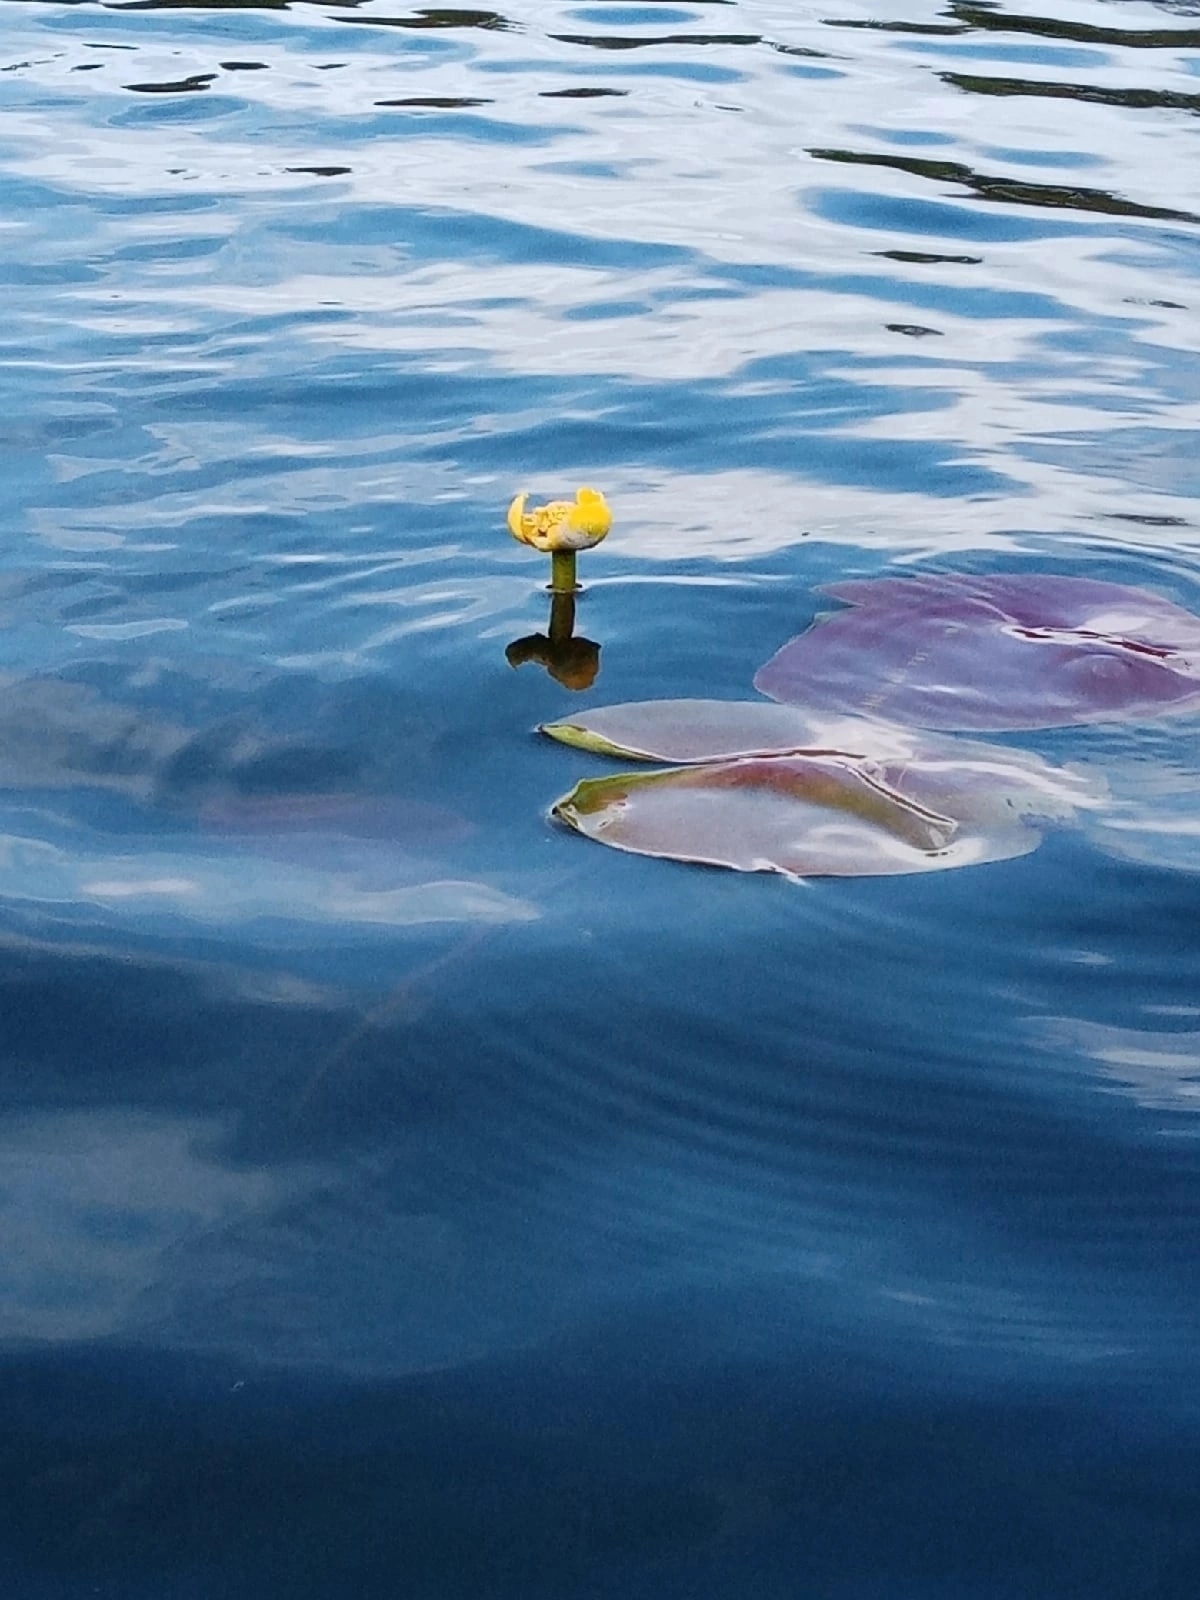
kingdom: Plantae
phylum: Tracheophyta
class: Magnoliopsida
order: Nymphaeales
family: Nymphaeaceae
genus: Nuphar
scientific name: Nuphar lutea
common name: Yellow water-lily
